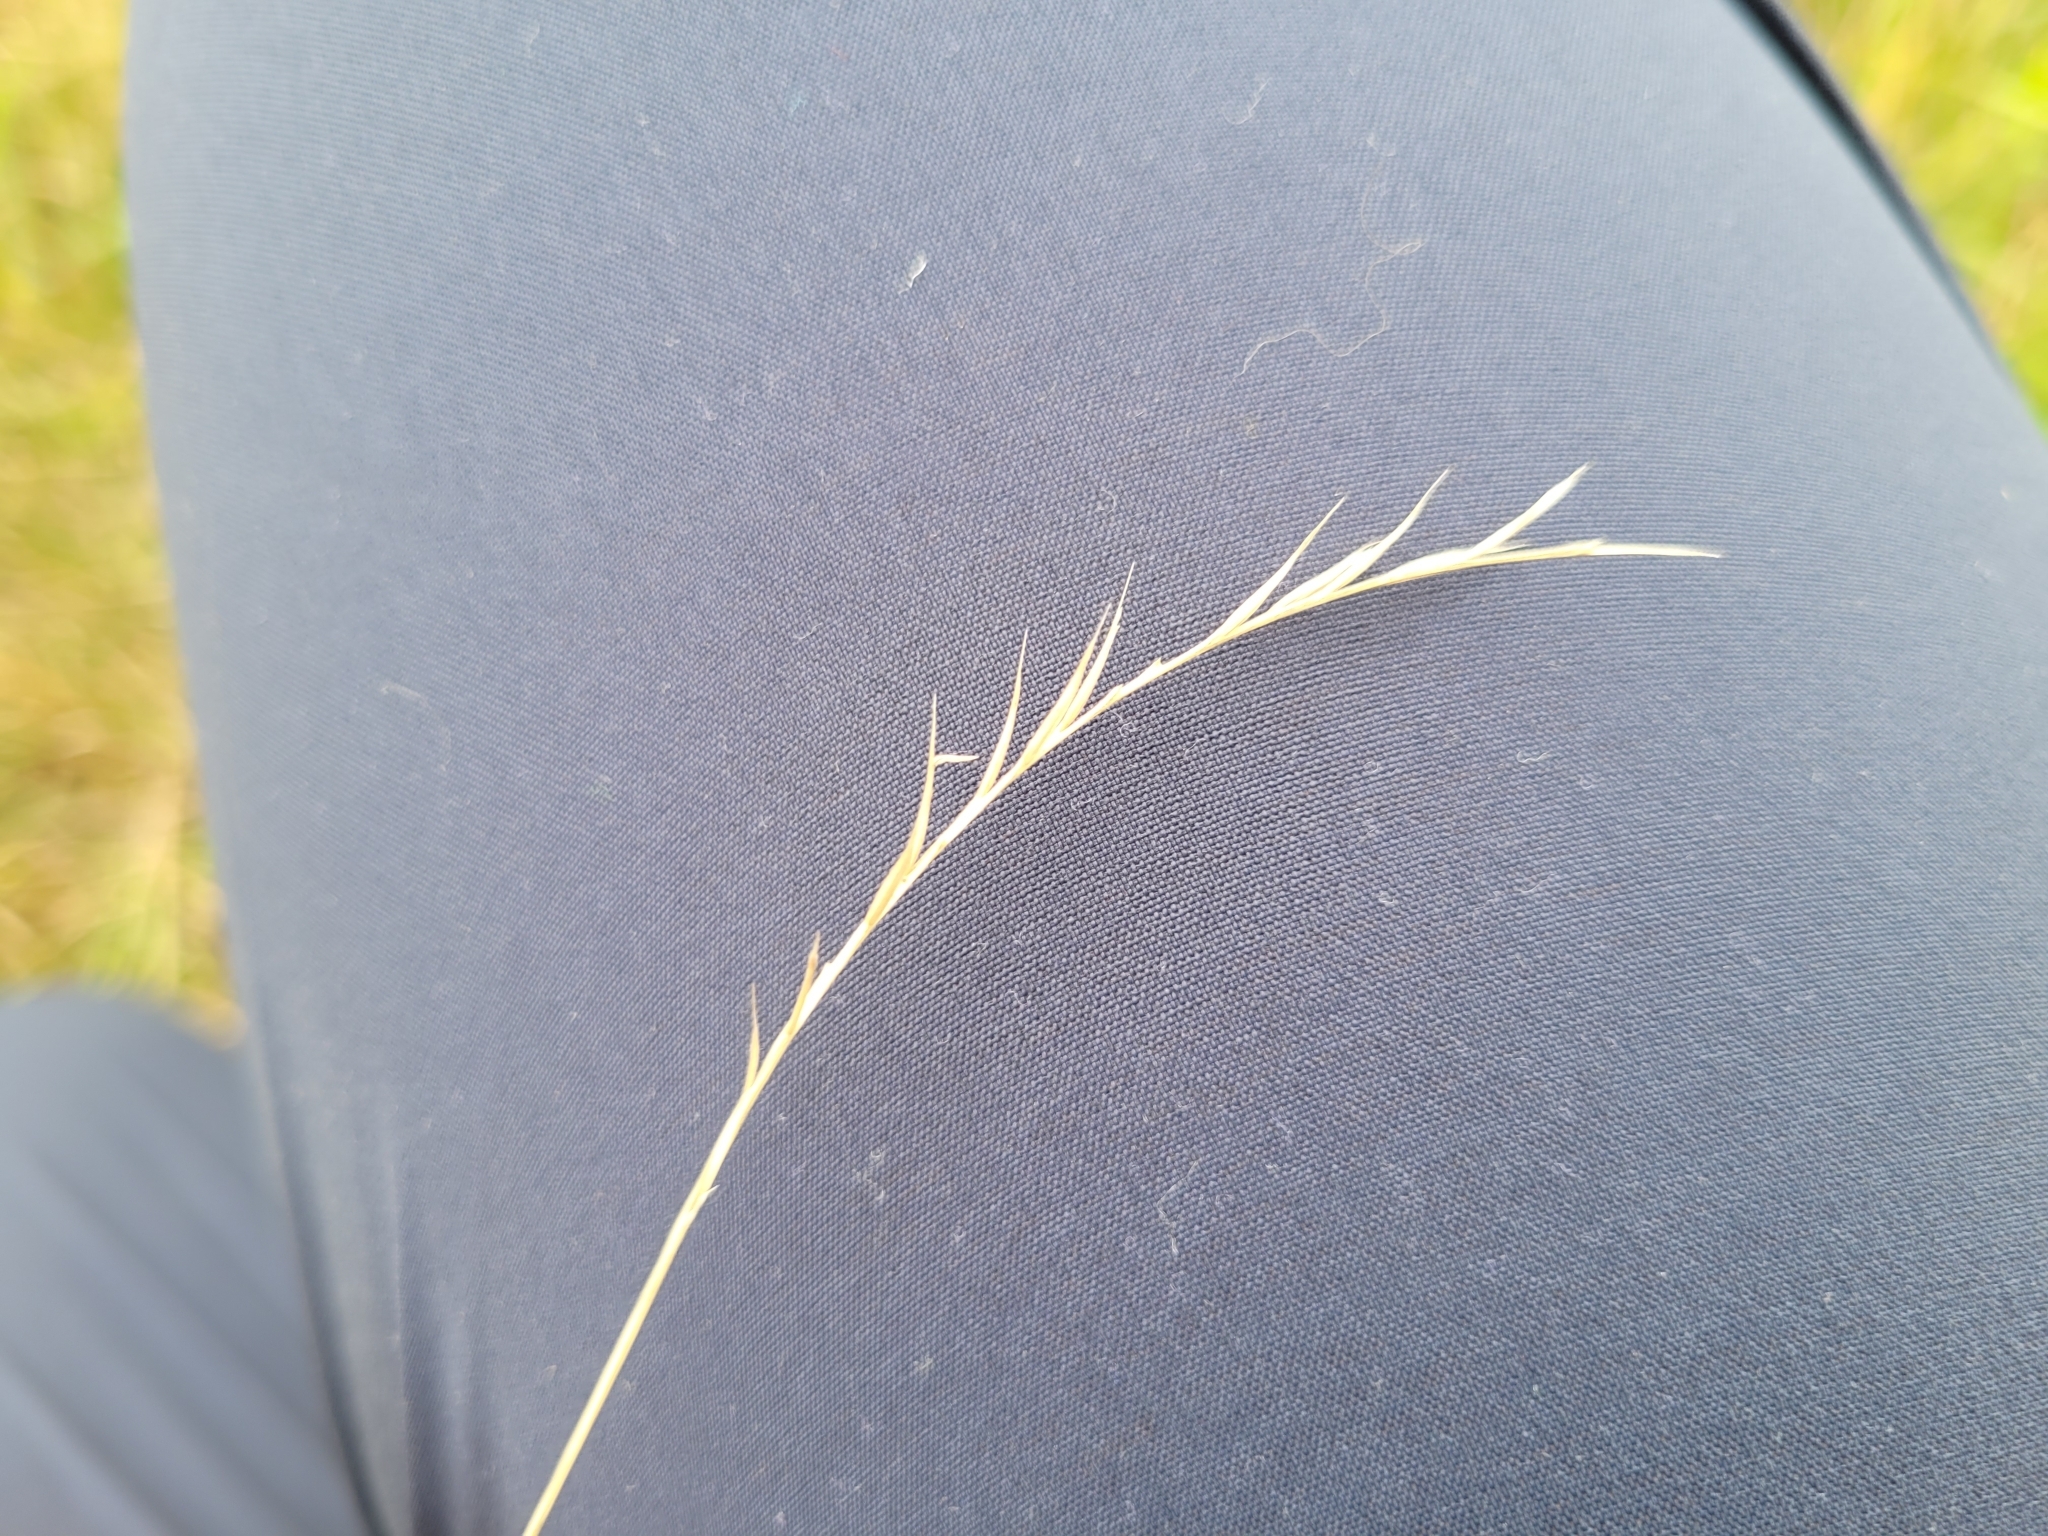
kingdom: Plantae
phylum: Tracheophyta
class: Liliopsida
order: Poales
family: Poaceae
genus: Nardus
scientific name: Nardus stricta
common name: Mat-grass
